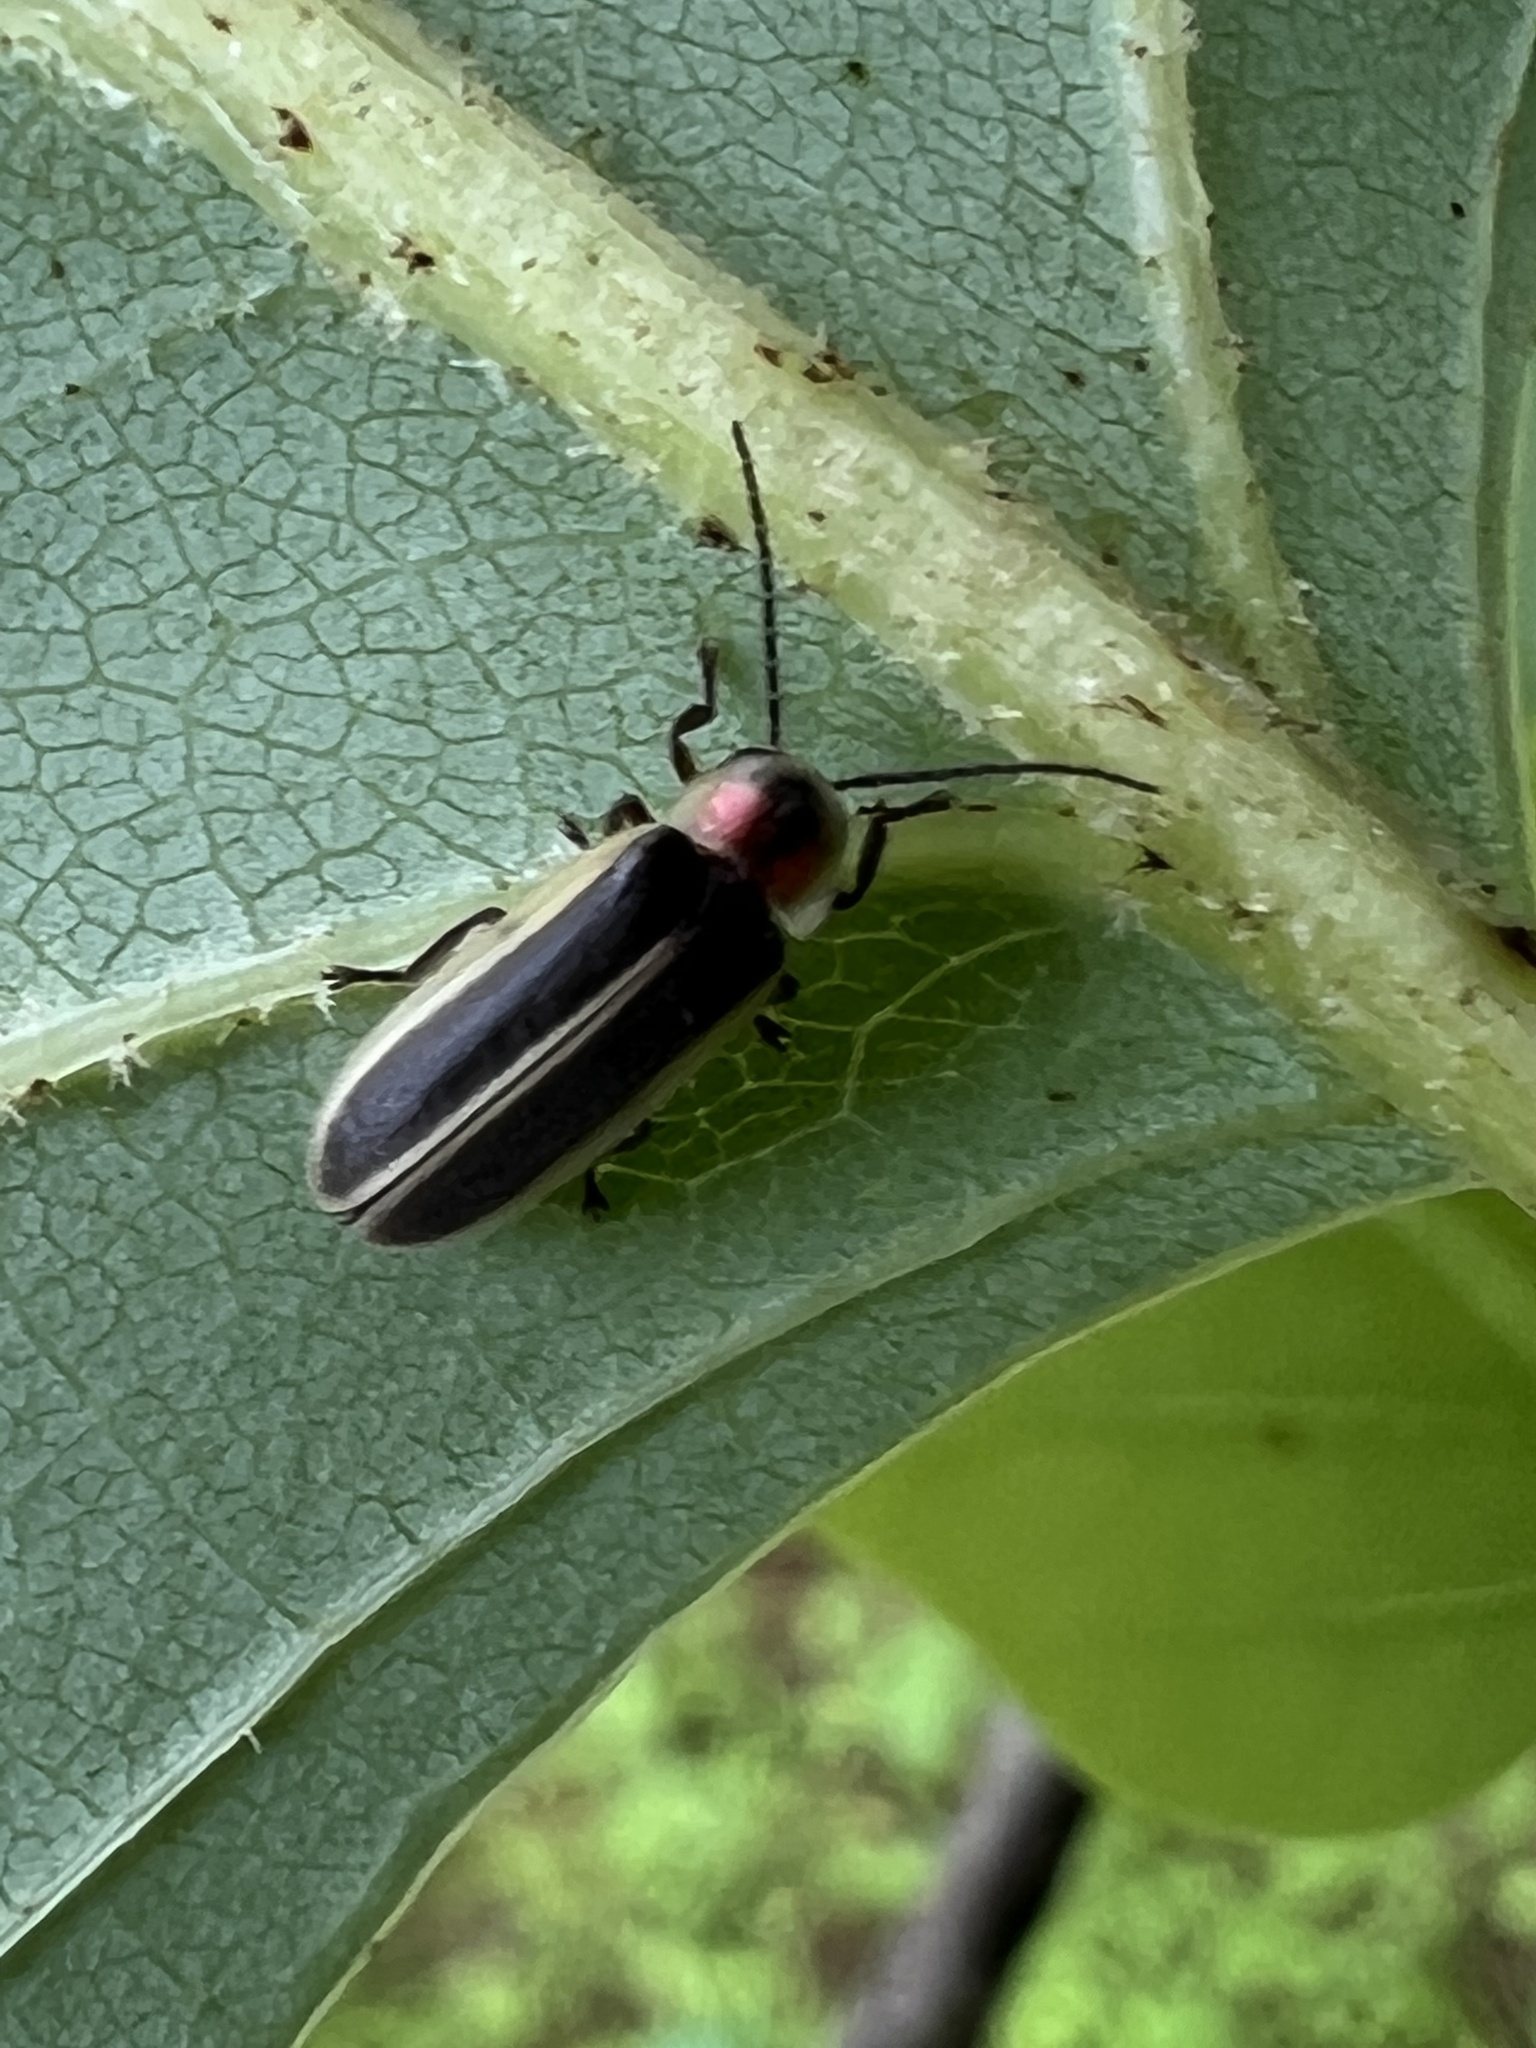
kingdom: Animalia
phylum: Arthropoda
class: Insecta
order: Coleoptera
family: Lampyridae
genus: Photinus
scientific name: Photinus pyralis
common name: Big dipper firefly
